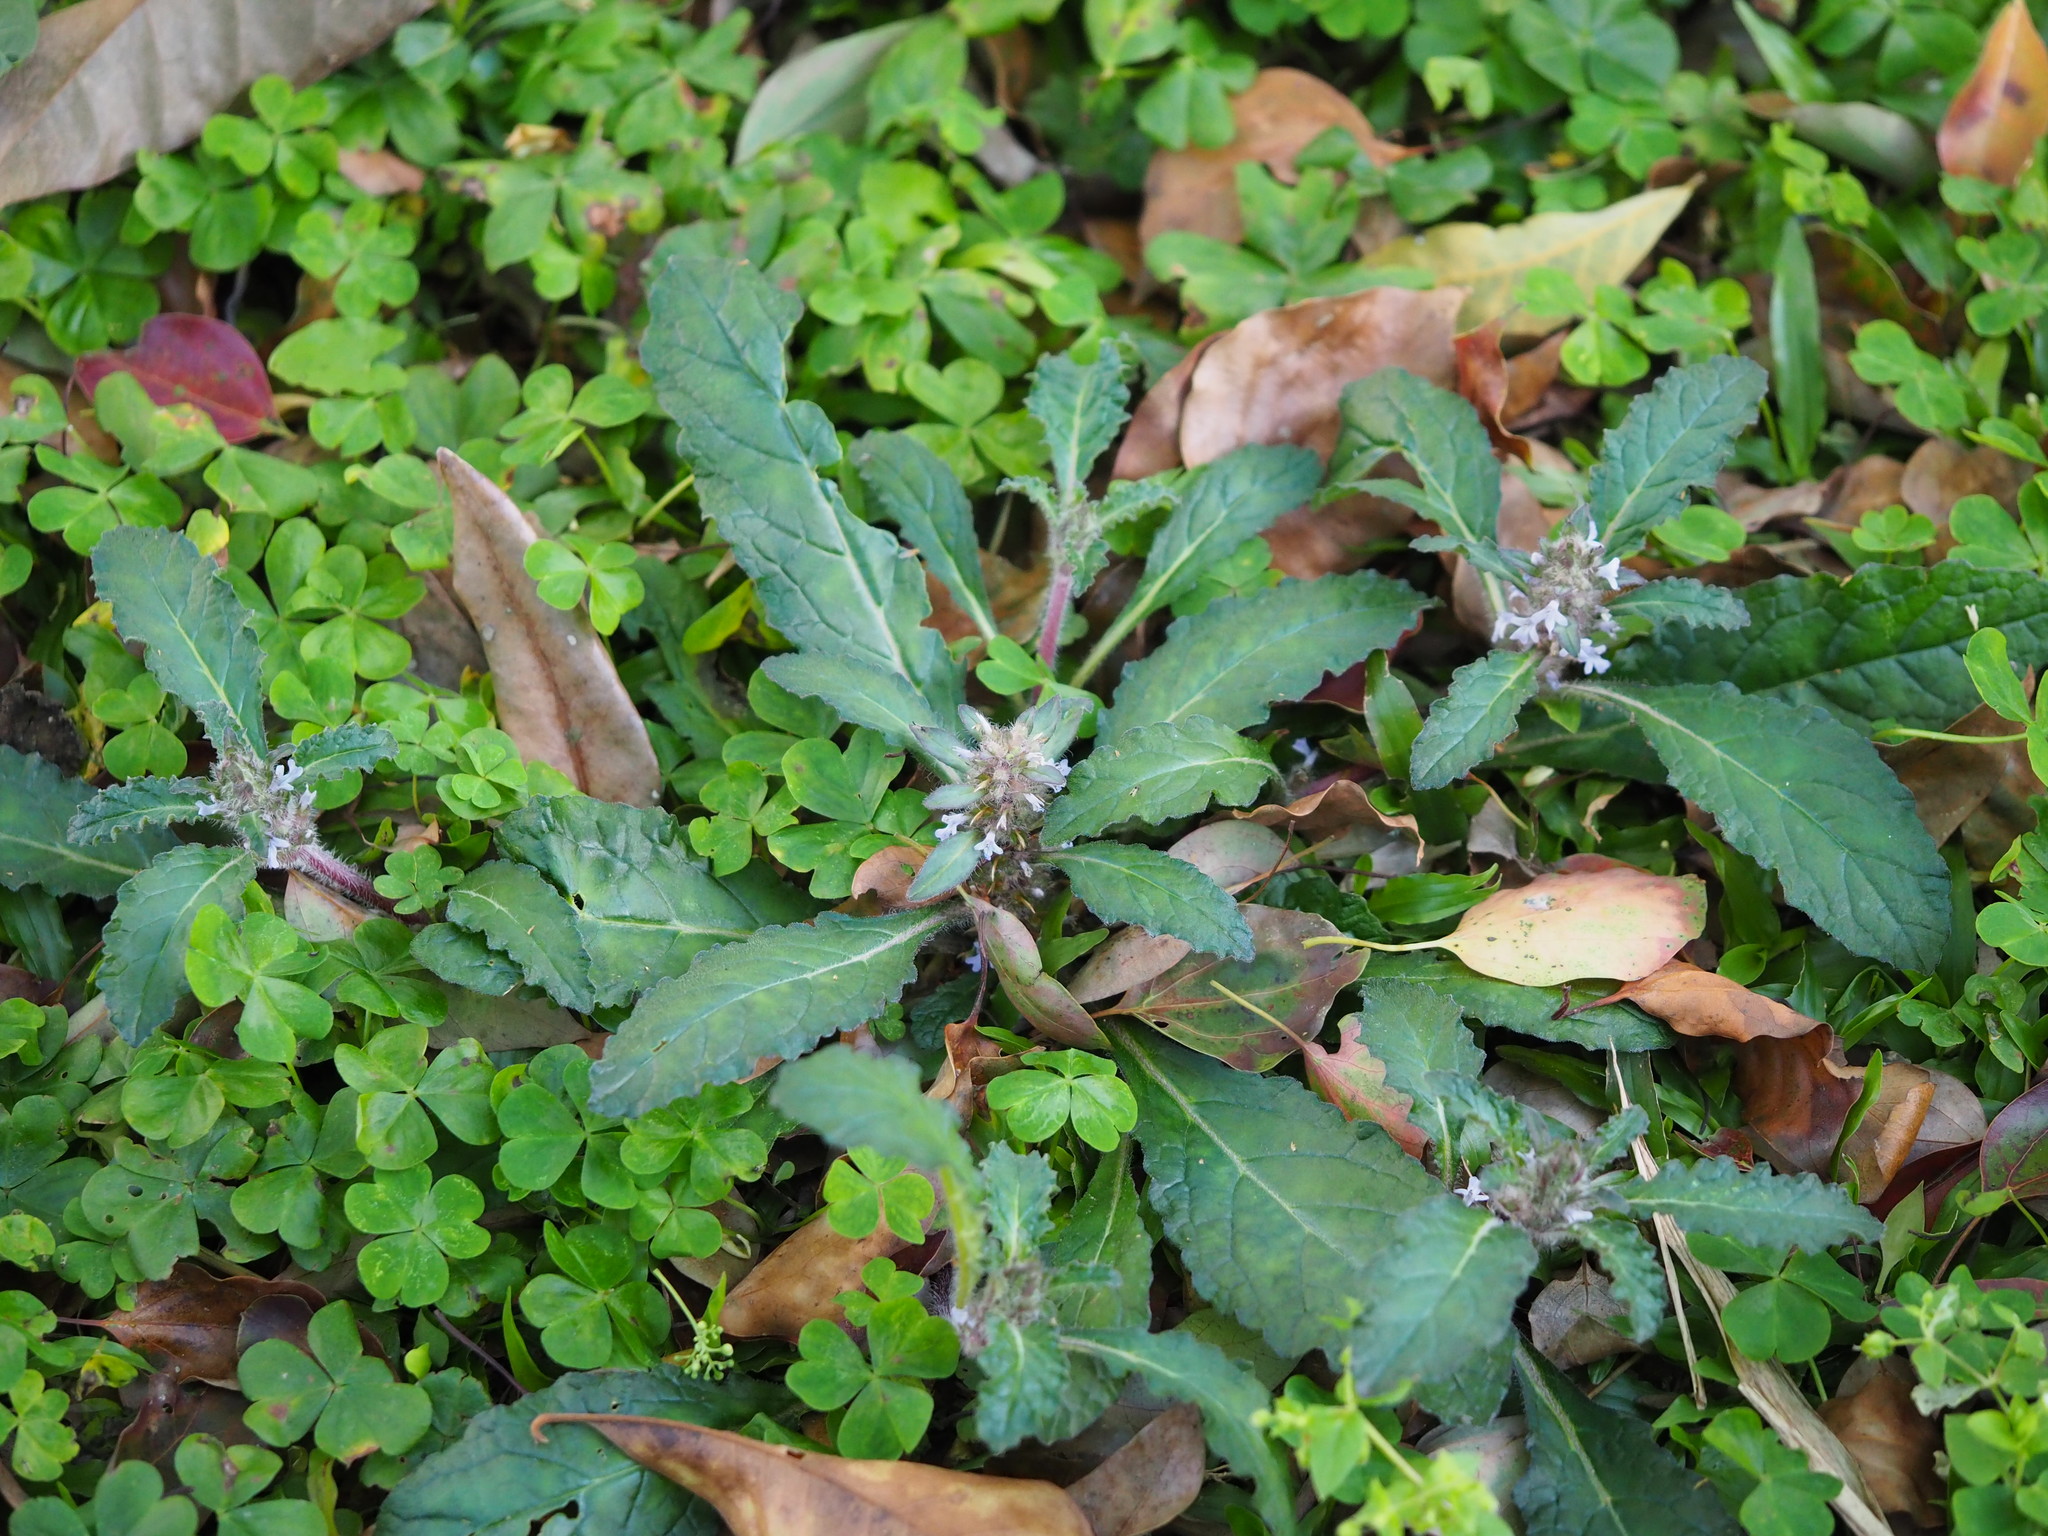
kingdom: Plantae
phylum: Tracheophyta
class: Magnoliopsida
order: Lamiales
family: Lamiaceae
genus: Ajuga
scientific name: Ajuga taiwanensis
